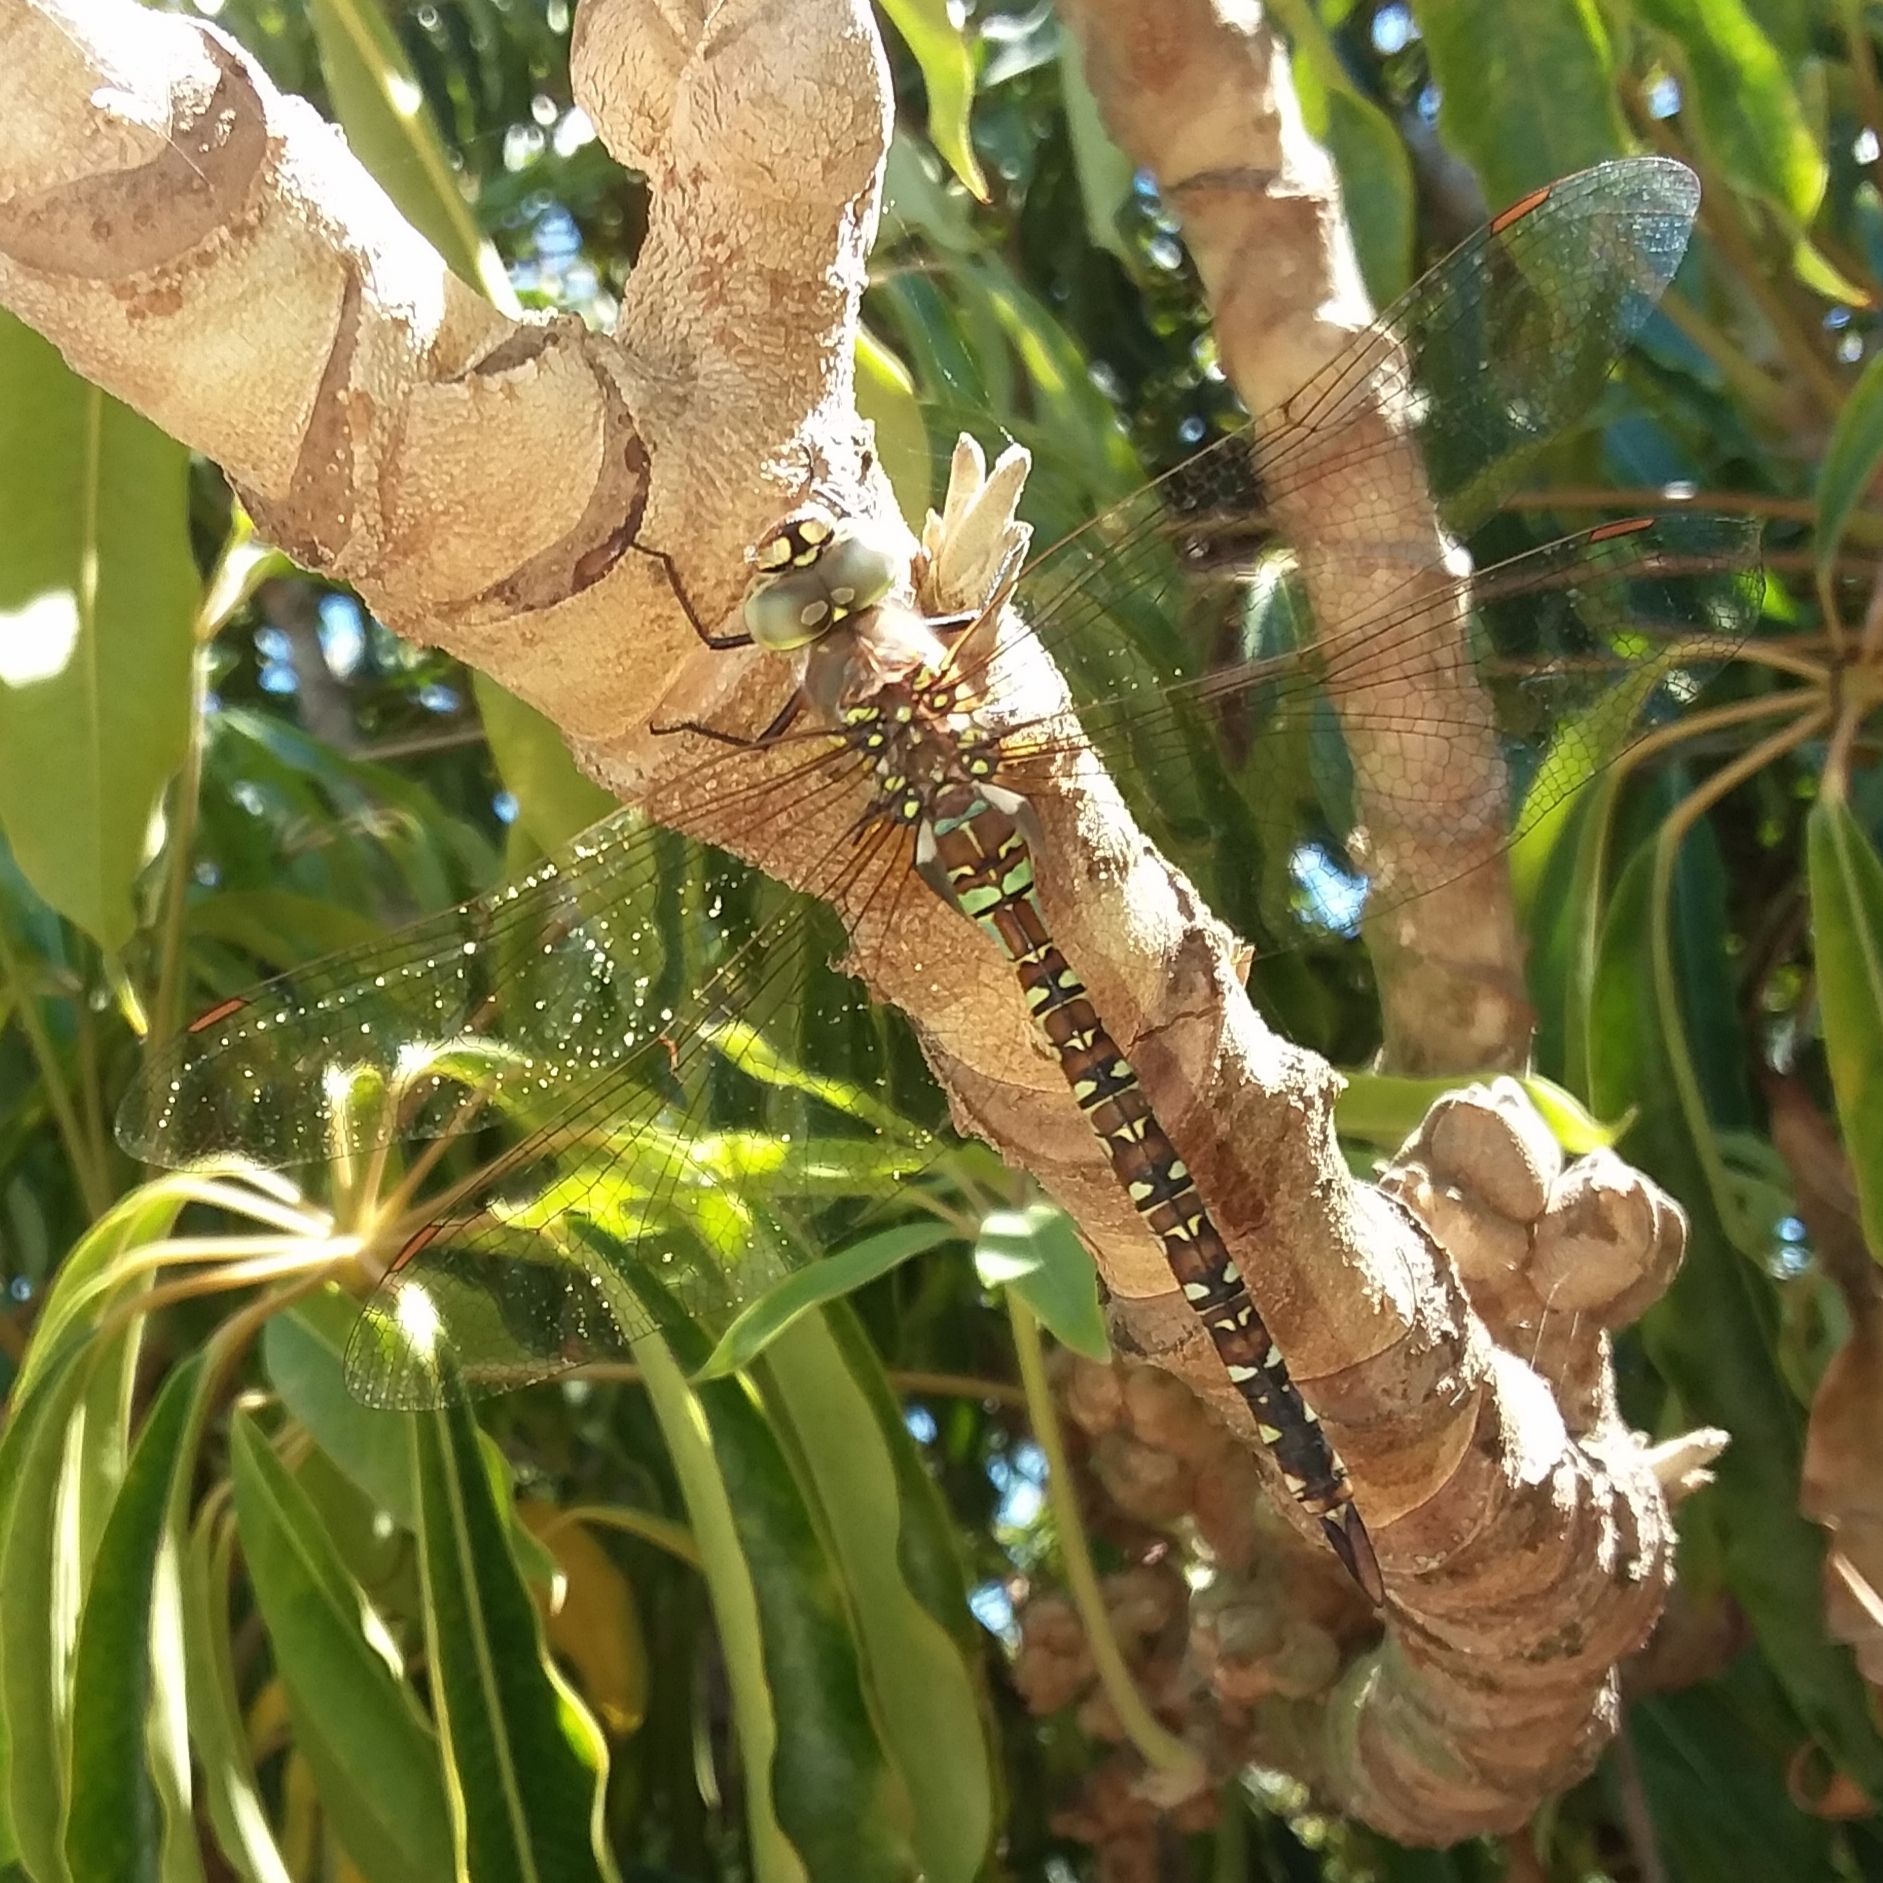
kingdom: Animalia
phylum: Arthropoda
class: Insecta
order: Odonata
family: Aeshnidae
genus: Rhionaeschna
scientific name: Rhionaeschna multicolor
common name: Blue-eyed darner
